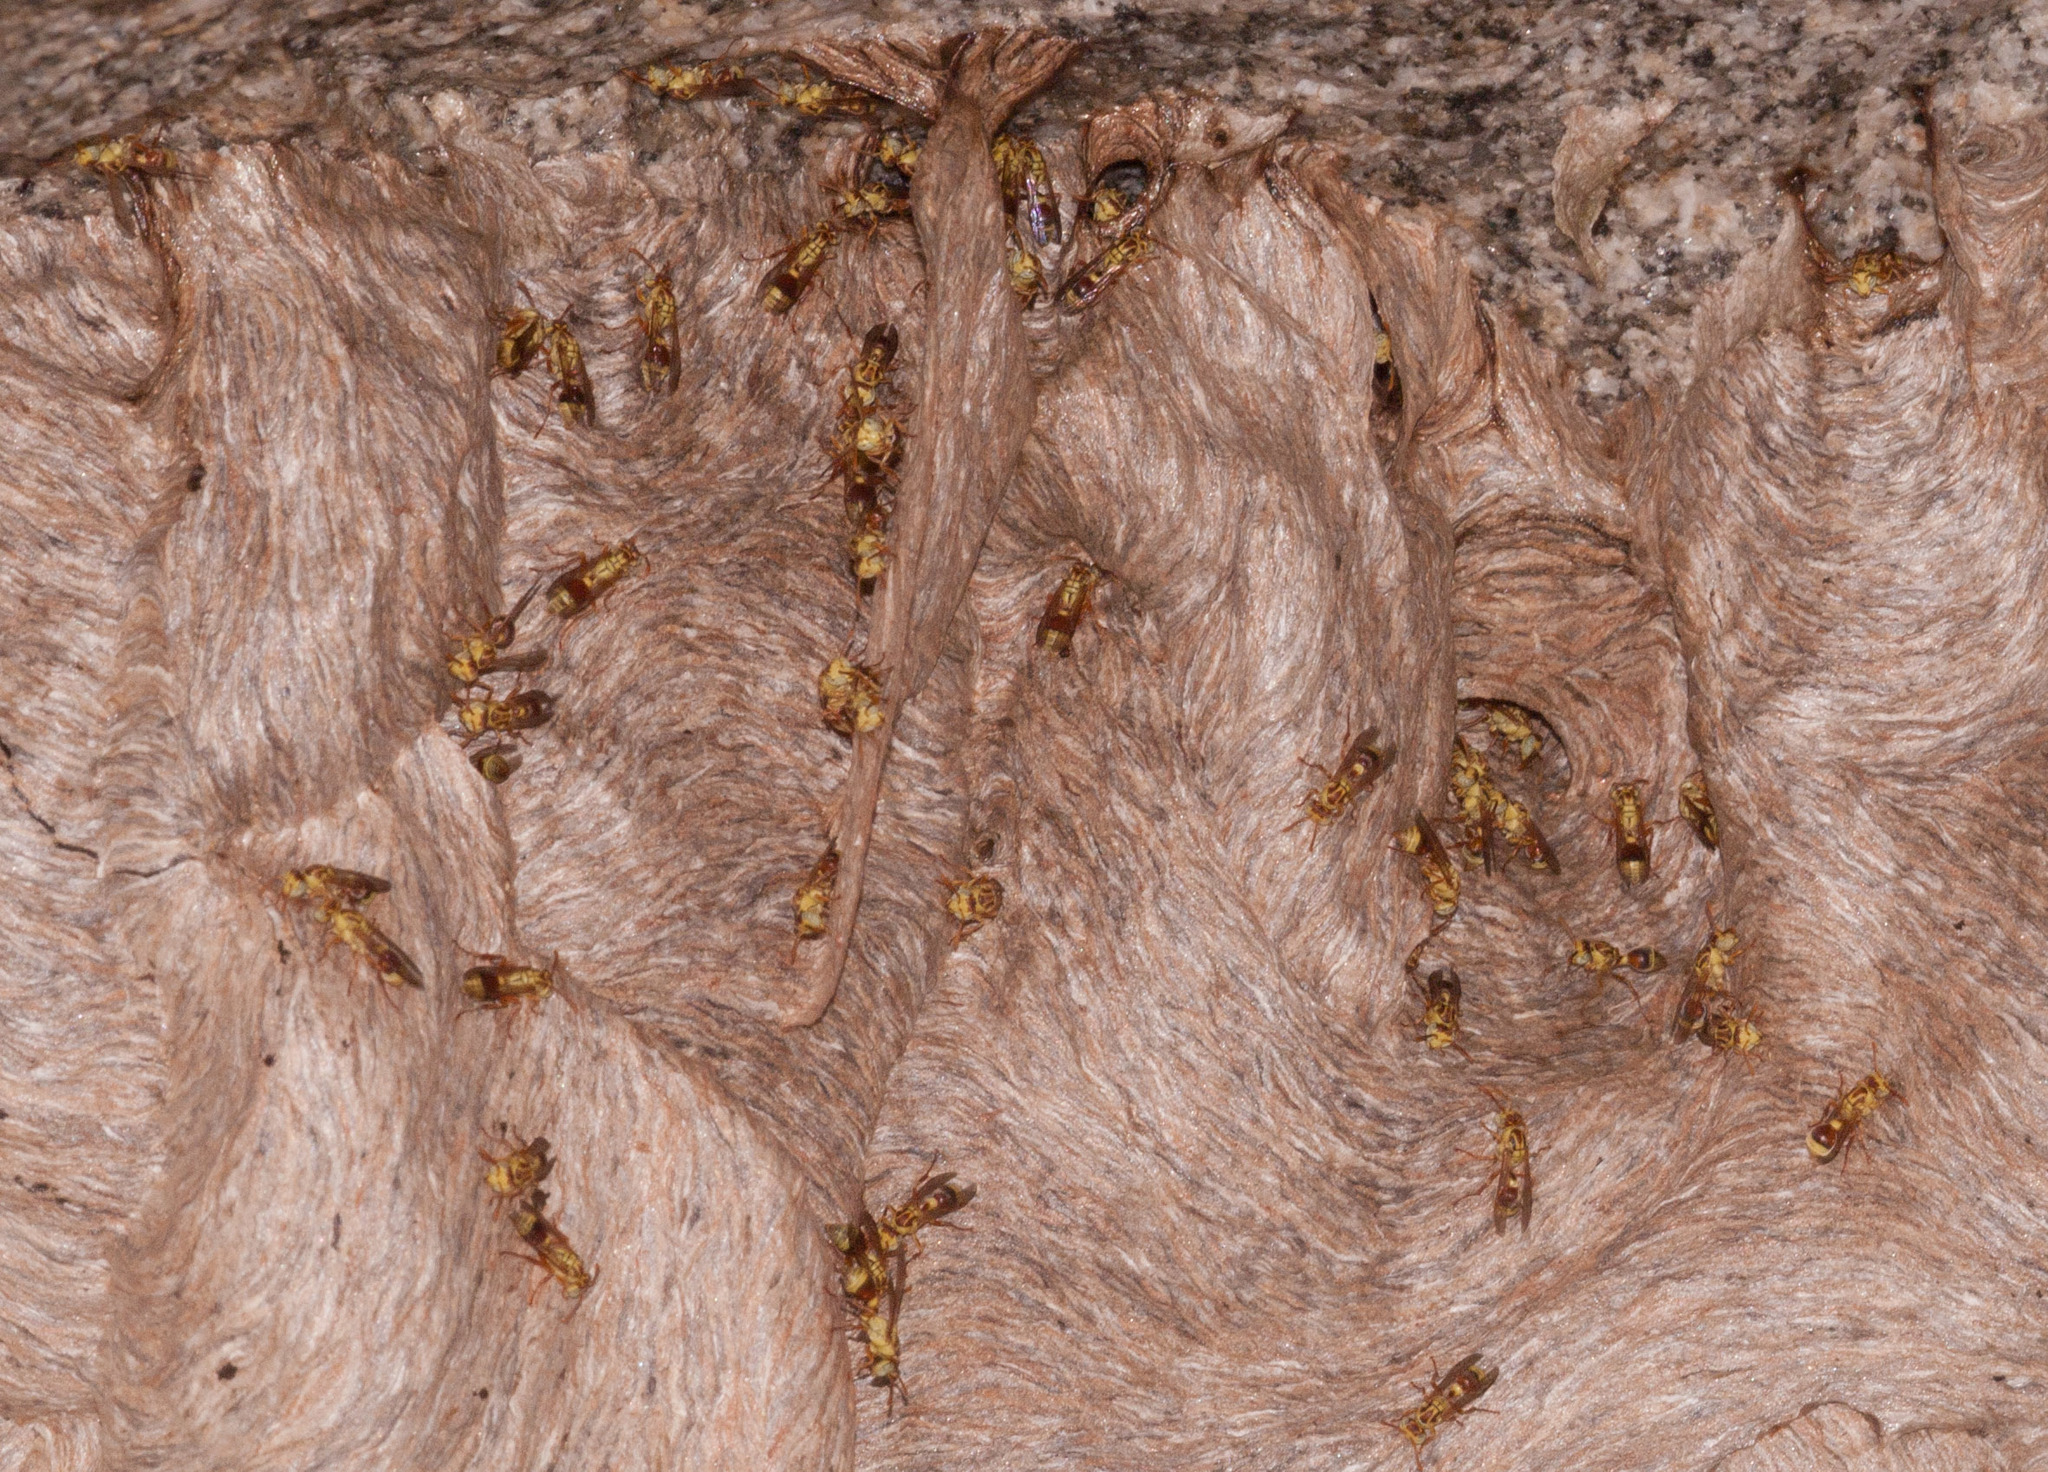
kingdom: Animalia
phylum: Arthropoda
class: Insecta
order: Hymenoptera
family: Vespidae
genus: Ropalidia
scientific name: Ropalidia romandi
